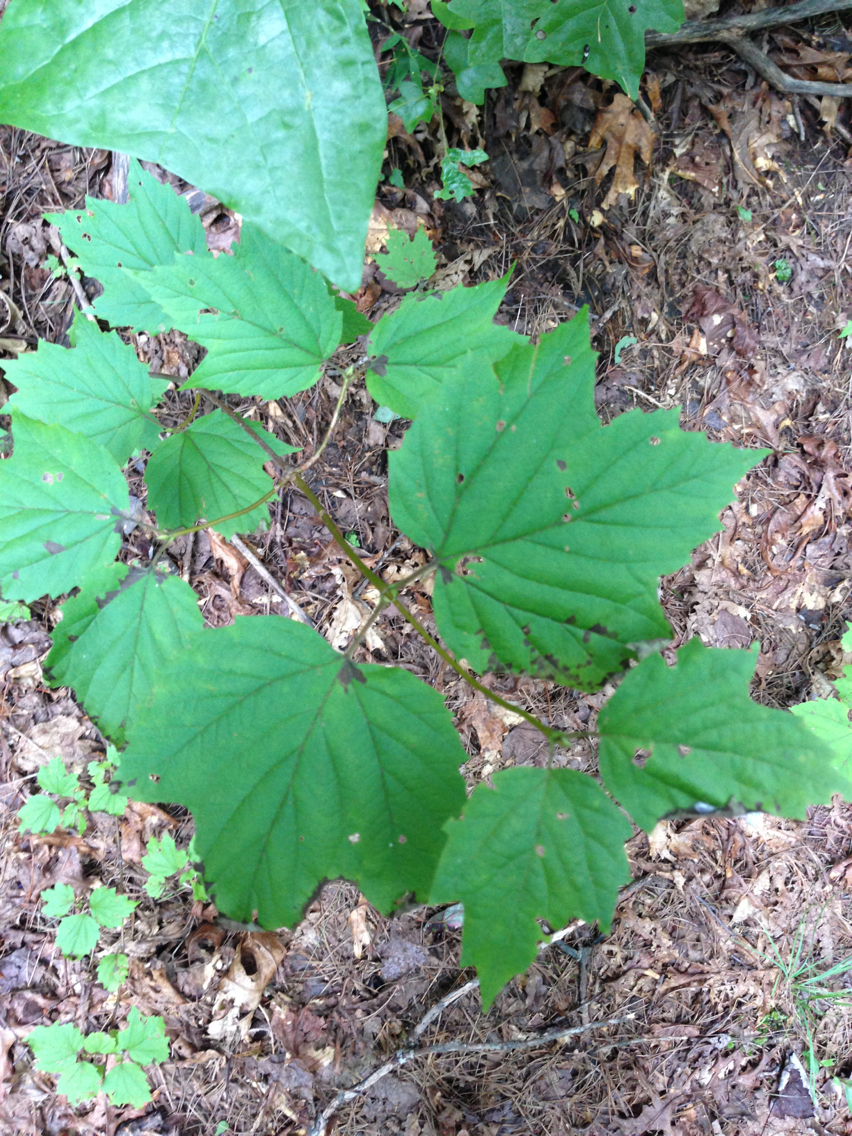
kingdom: Plantae
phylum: Tracheophyta
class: Magnoliopsida
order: Dipsacales
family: Viburnaceae
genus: Viburnum
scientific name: Viburnum acerifolium
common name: Dockmackie
